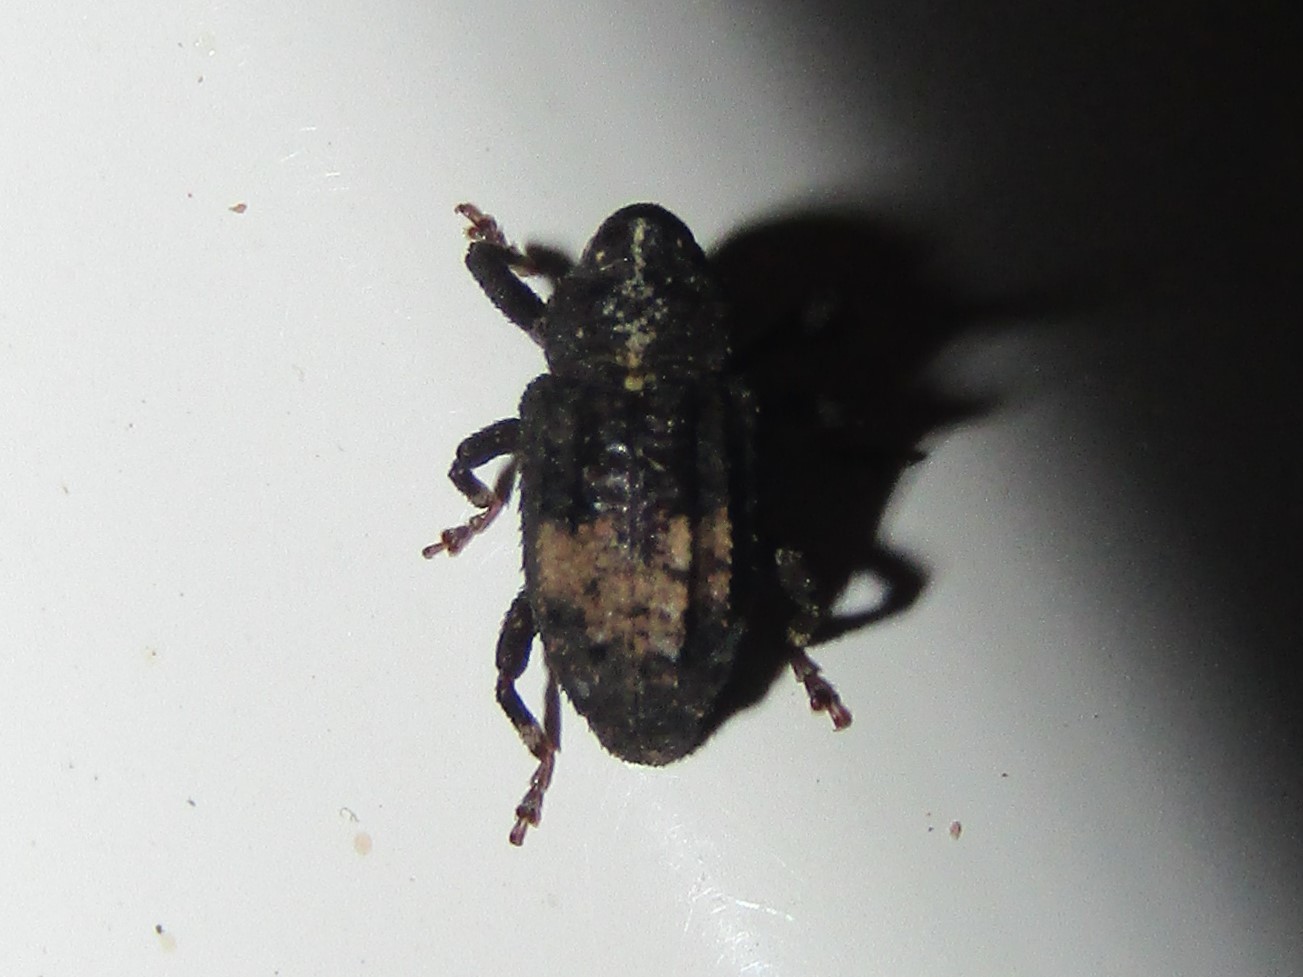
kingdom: Animalia
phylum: Arthropoda
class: Insecta
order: Coleoptera
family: Curculionidae
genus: Cophes
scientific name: Cophes obtentus
